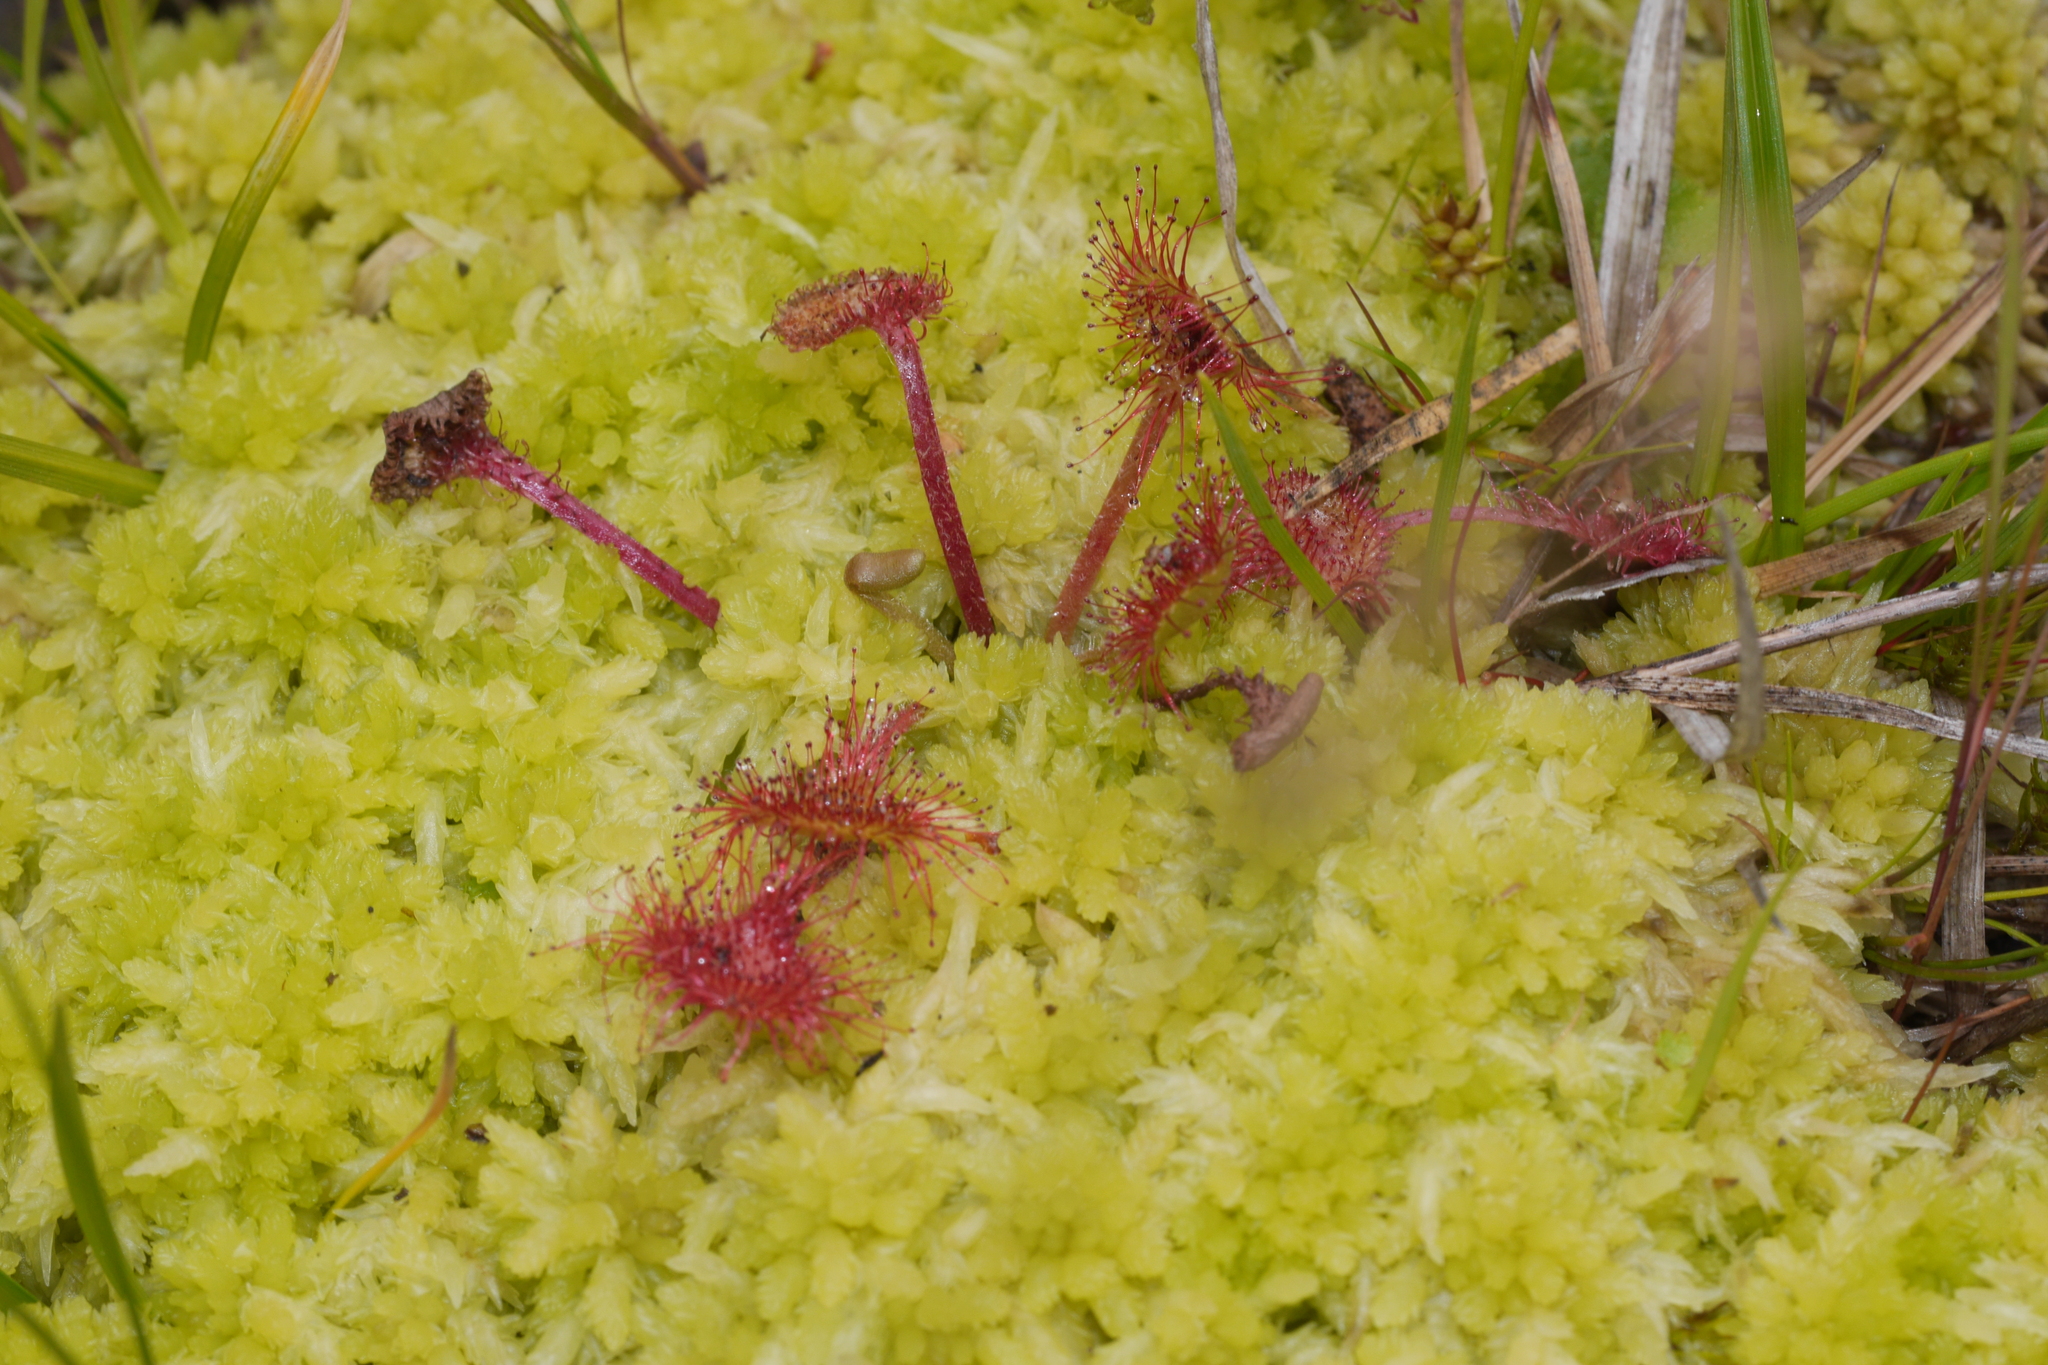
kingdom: Plantae
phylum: Tracheophyta
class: Magnoliopsida
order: Caryophyllales
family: Droseraceae
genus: Drosera
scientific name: Drosera rotundifolia
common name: Round-leaved sundew
